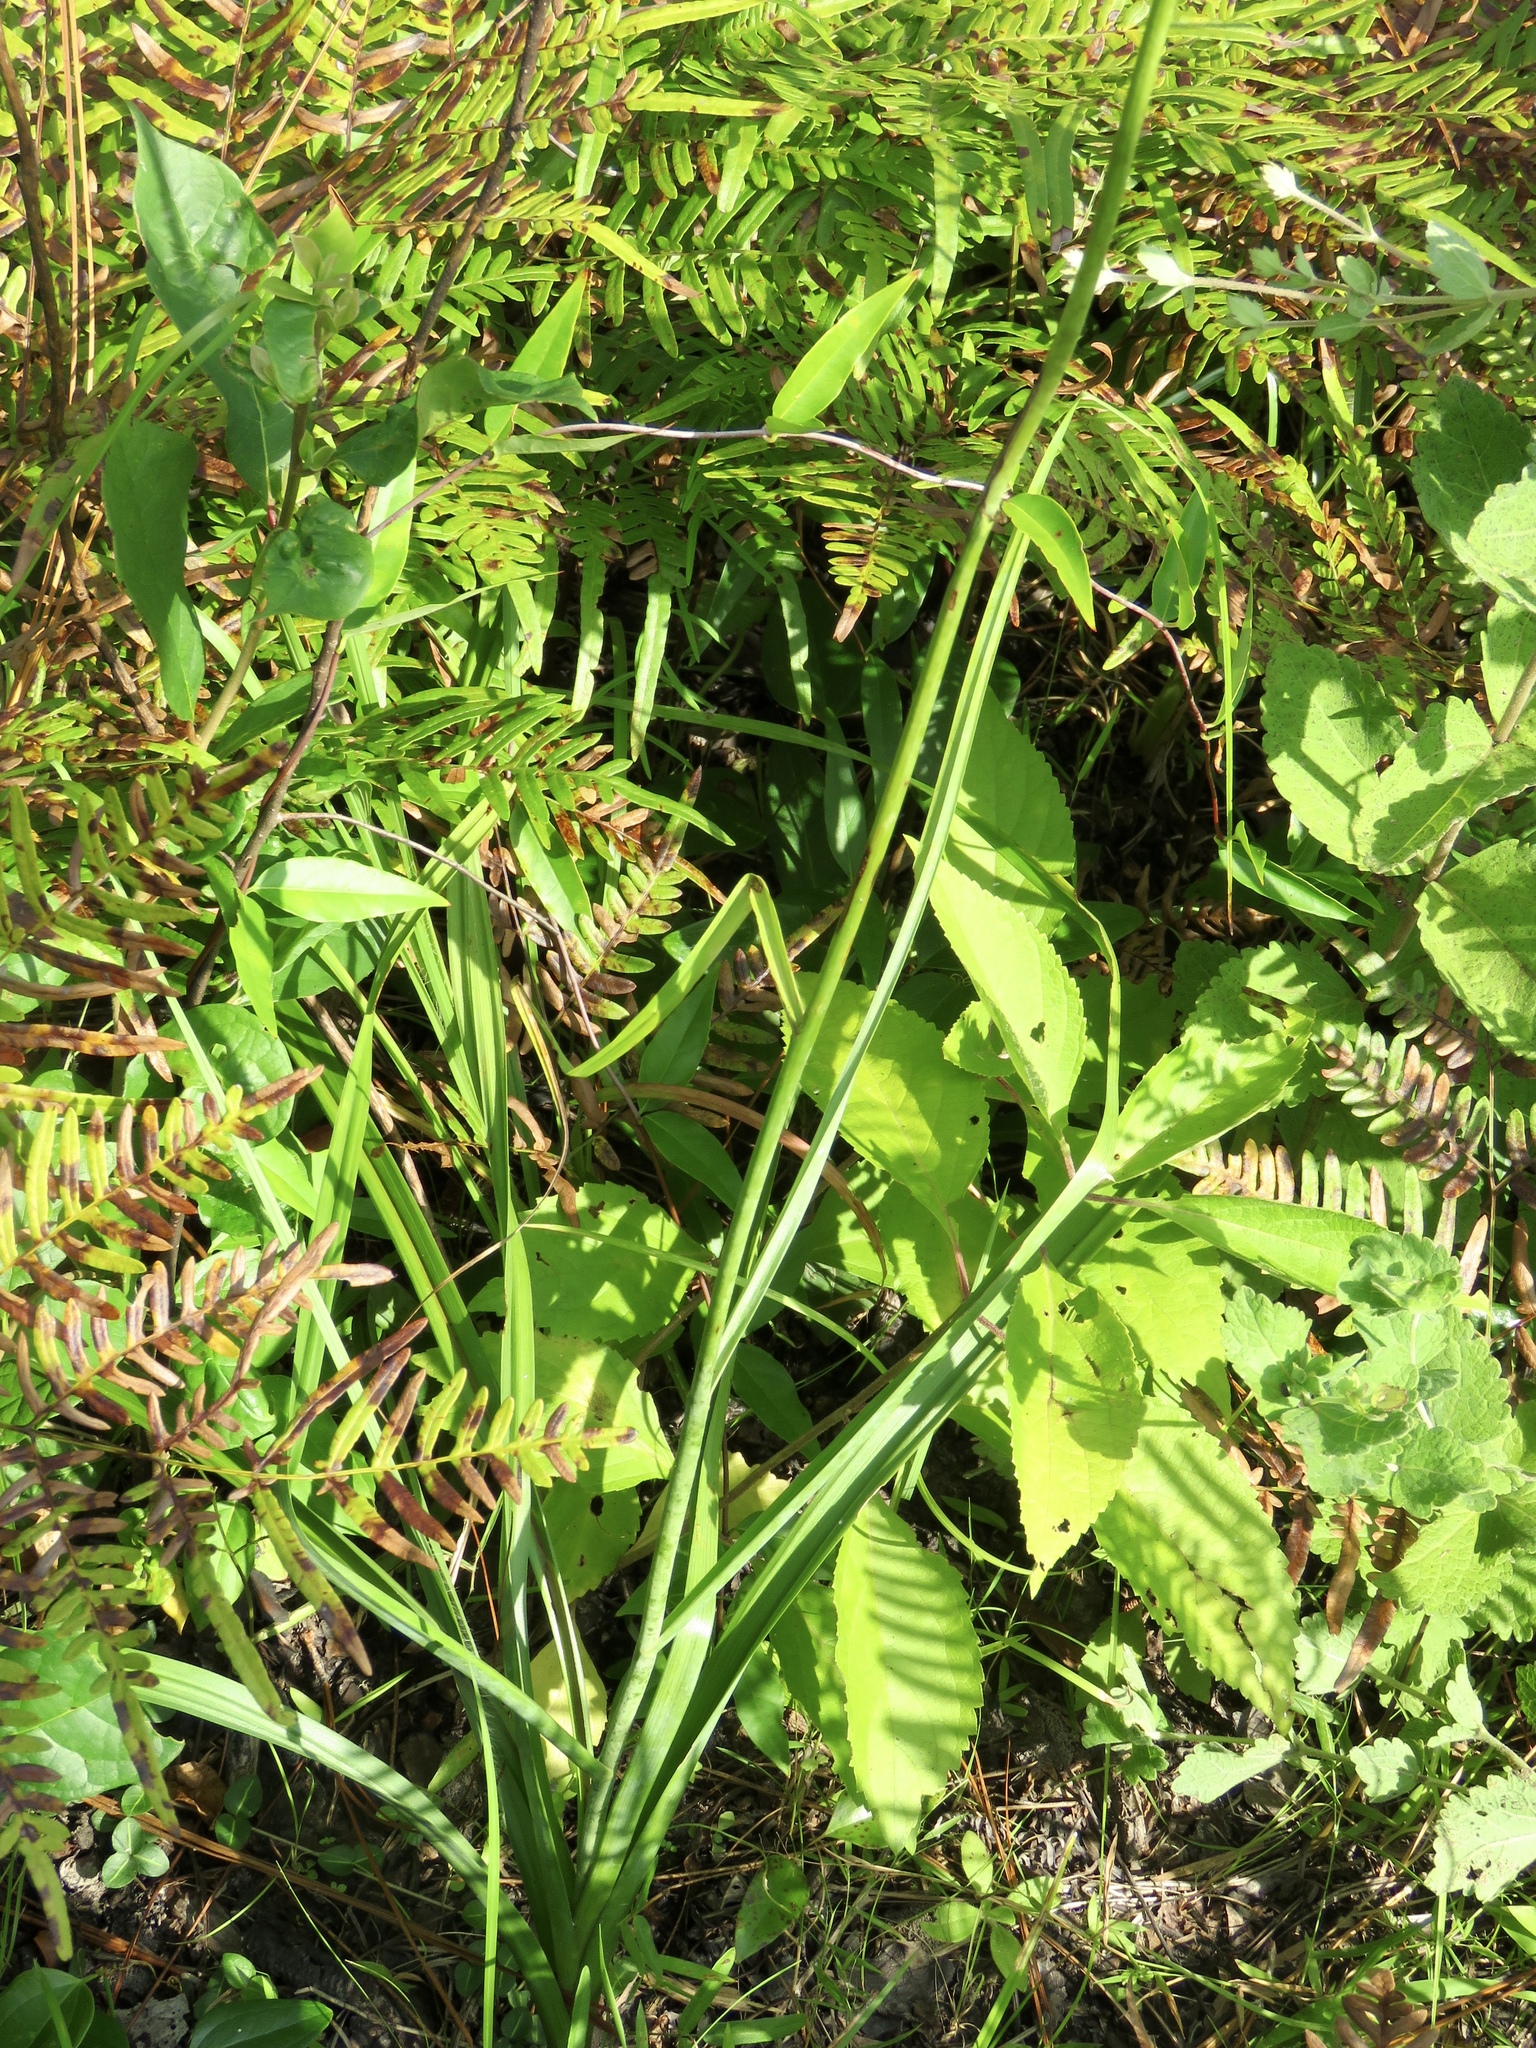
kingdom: Plantae
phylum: Tracheophyta
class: Liliopsida
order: Liliales
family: Melanthiaceae
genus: Stenanthium
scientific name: Stenanthium gramineum
